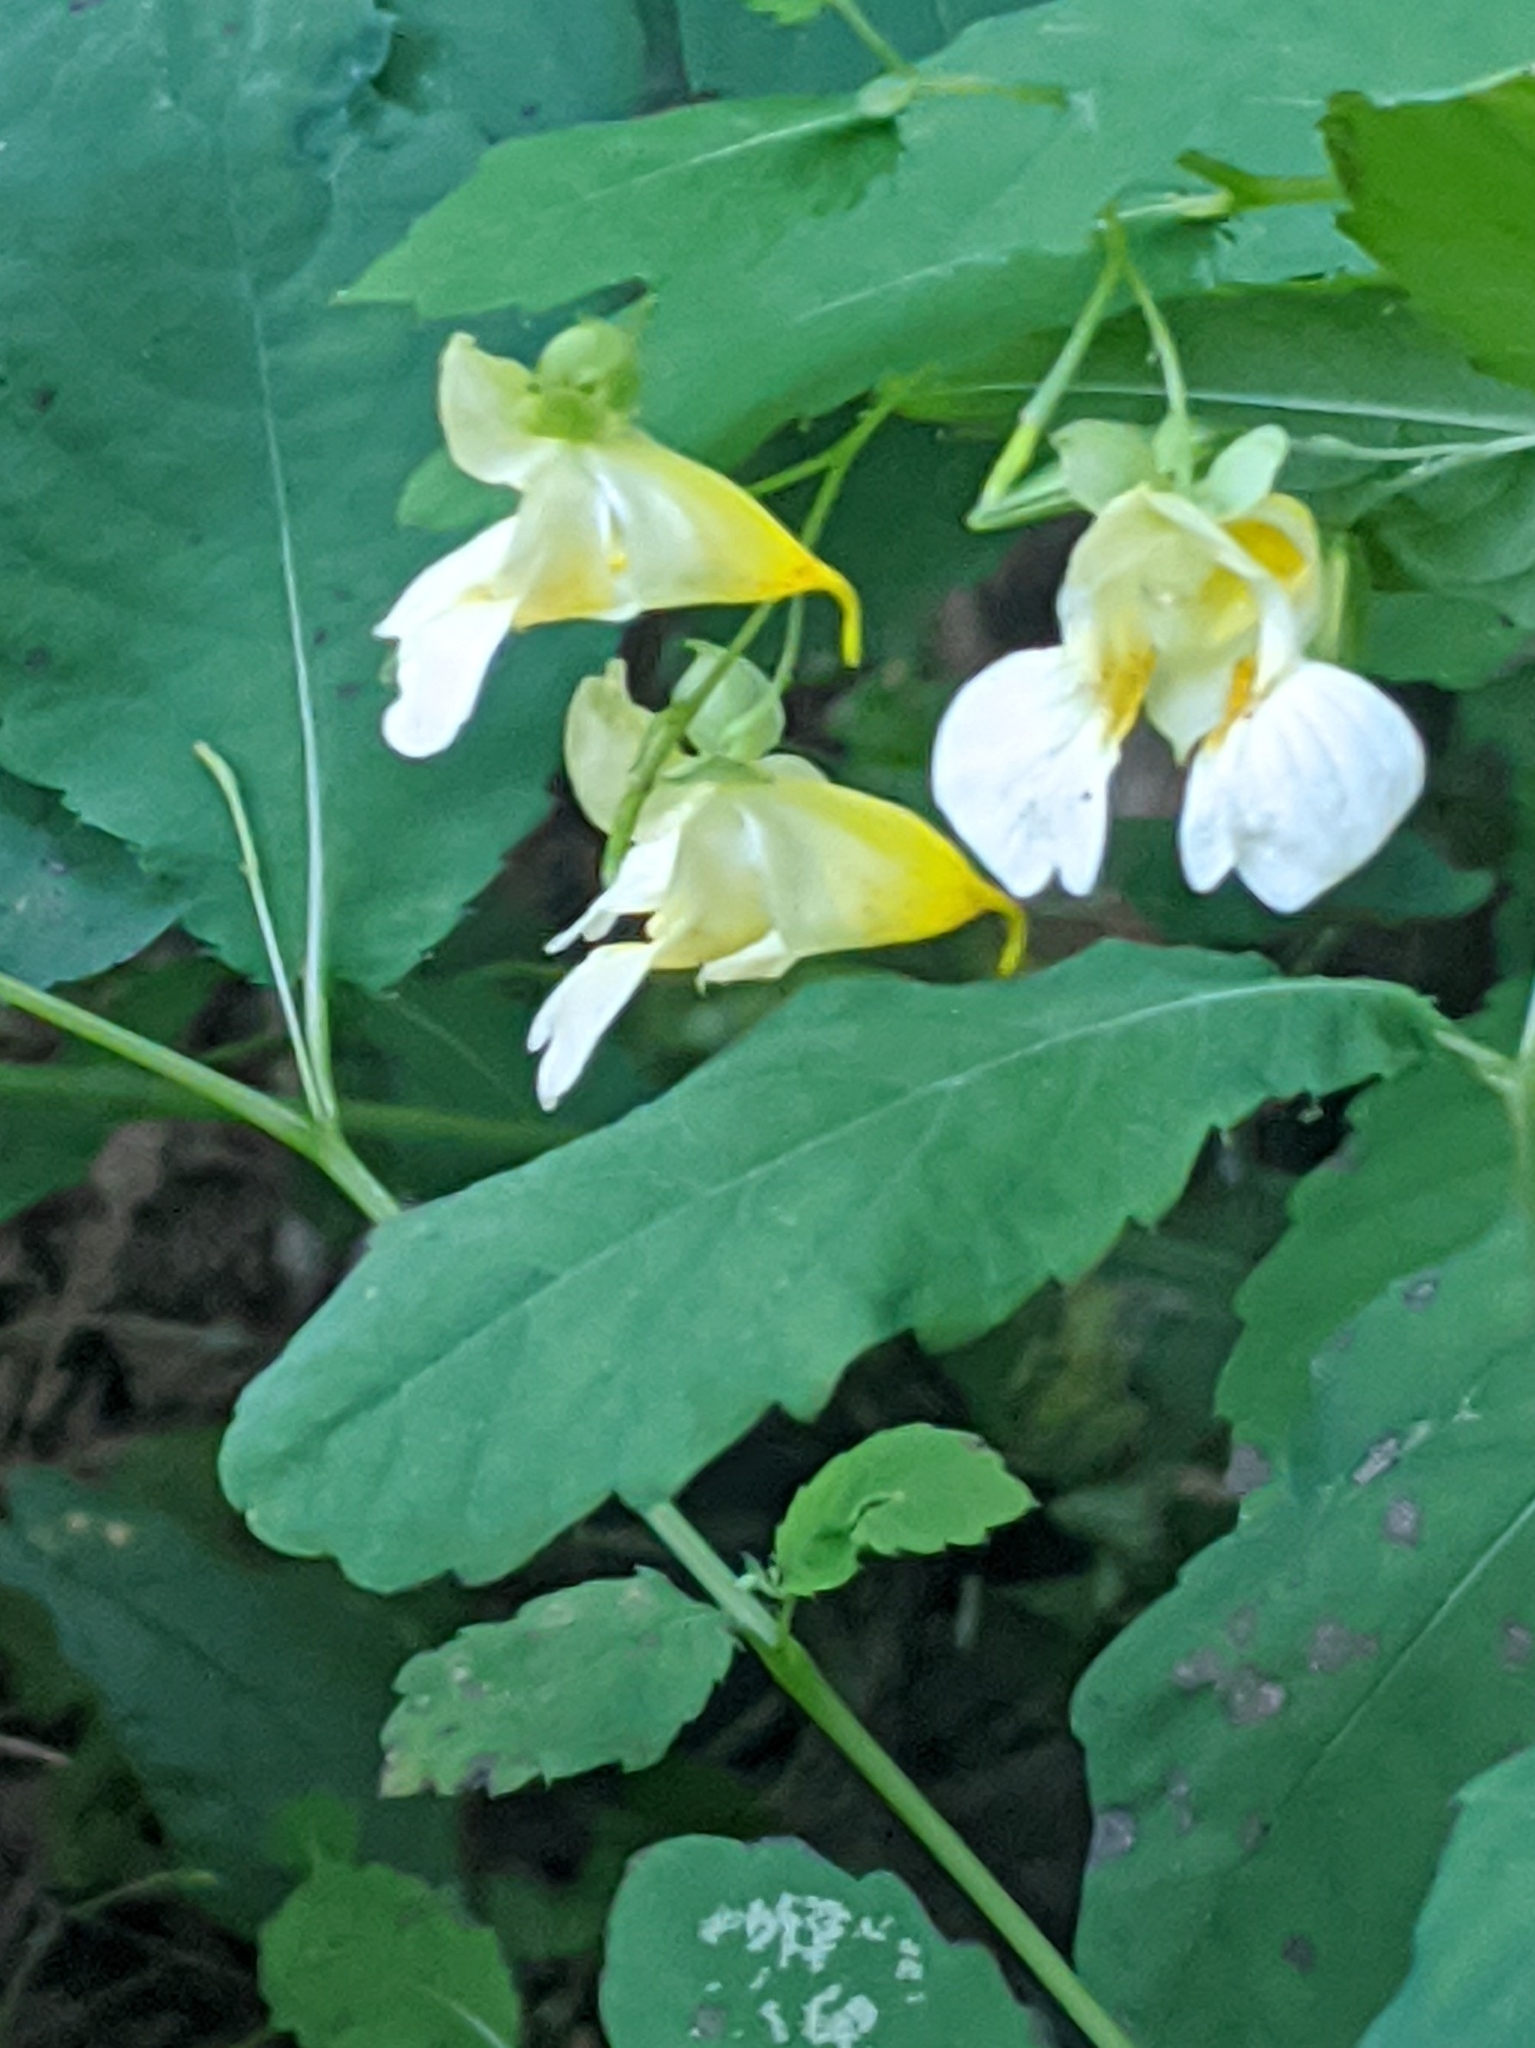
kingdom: Plantae
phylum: Tracheophyta
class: Magnoliopsida
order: Ericales
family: Balsaminaceae
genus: Impatiens
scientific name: Impatiens pallida
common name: Pale snapweed
